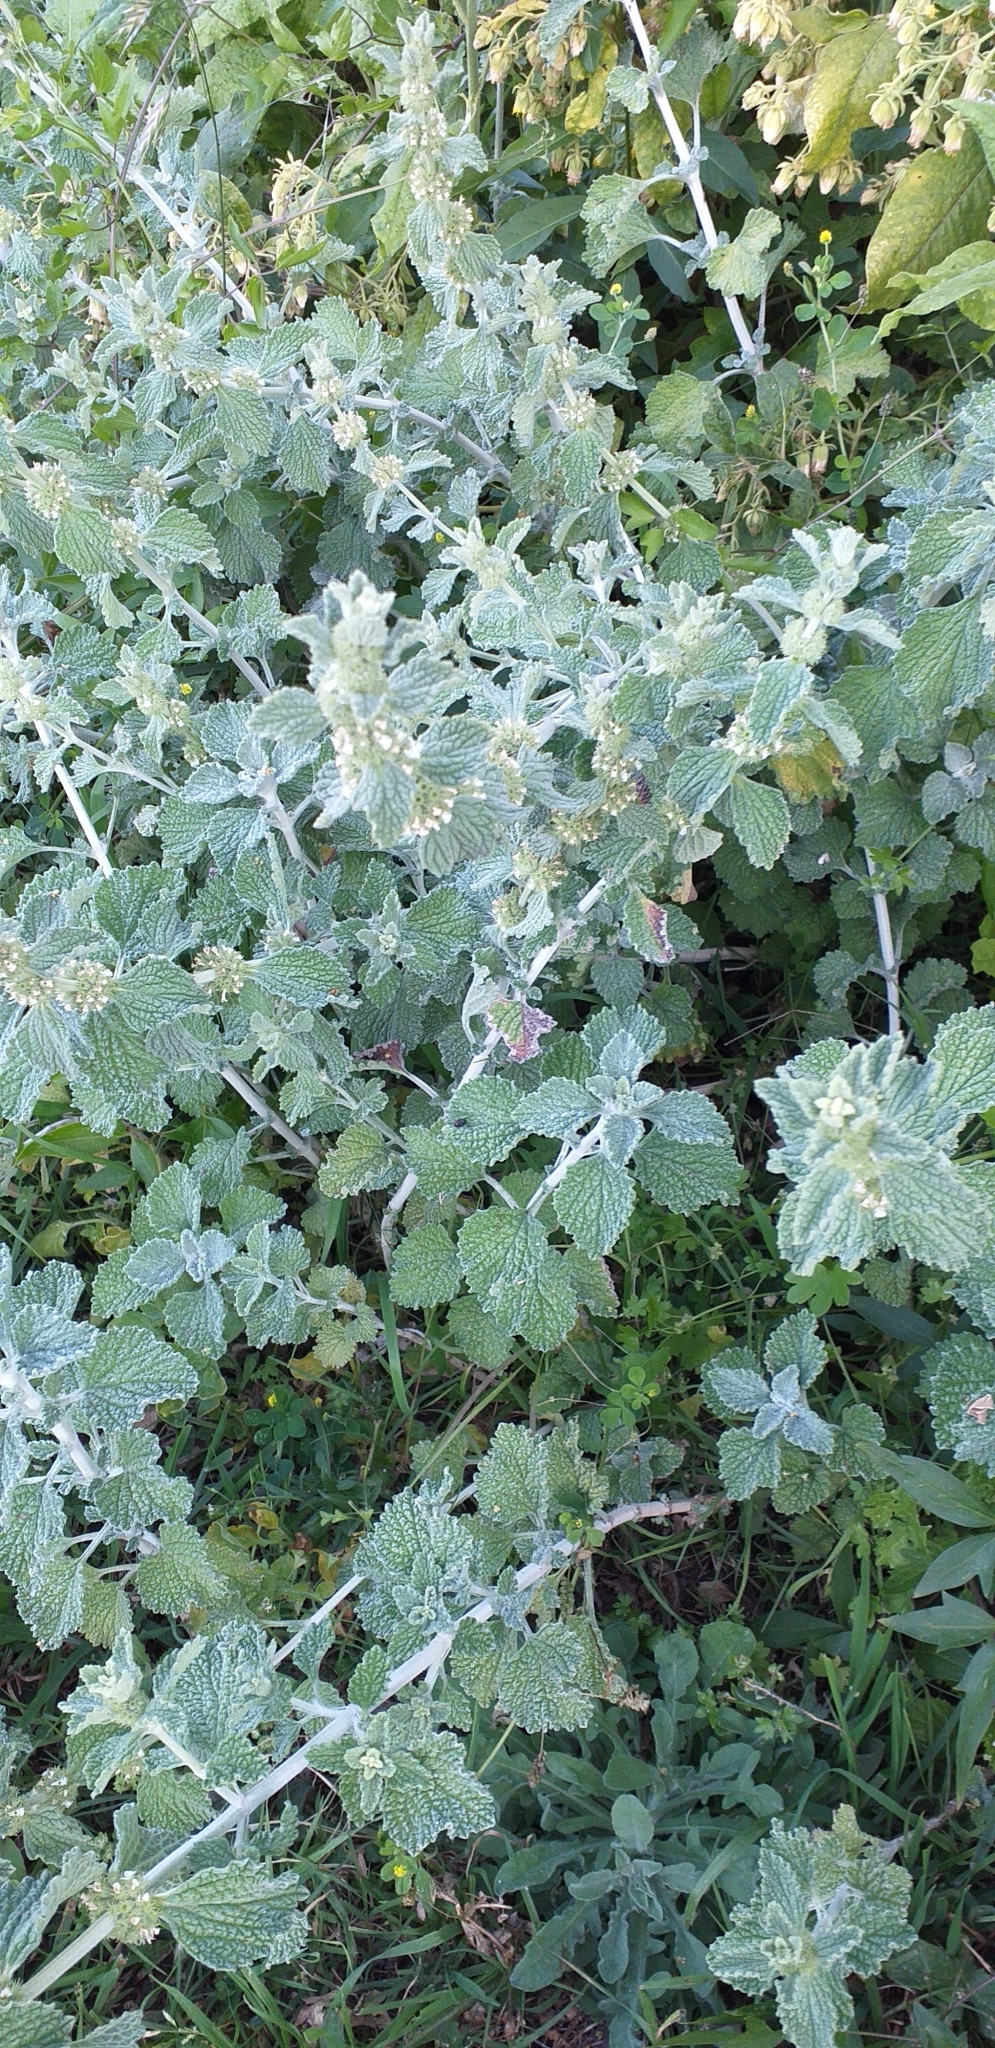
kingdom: Plantae
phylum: Tracheophyta
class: Magnoliopsida
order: Lamiales
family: Lamiaceae
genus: Marrubium
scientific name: Marrubium vulgare
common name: Horehound
